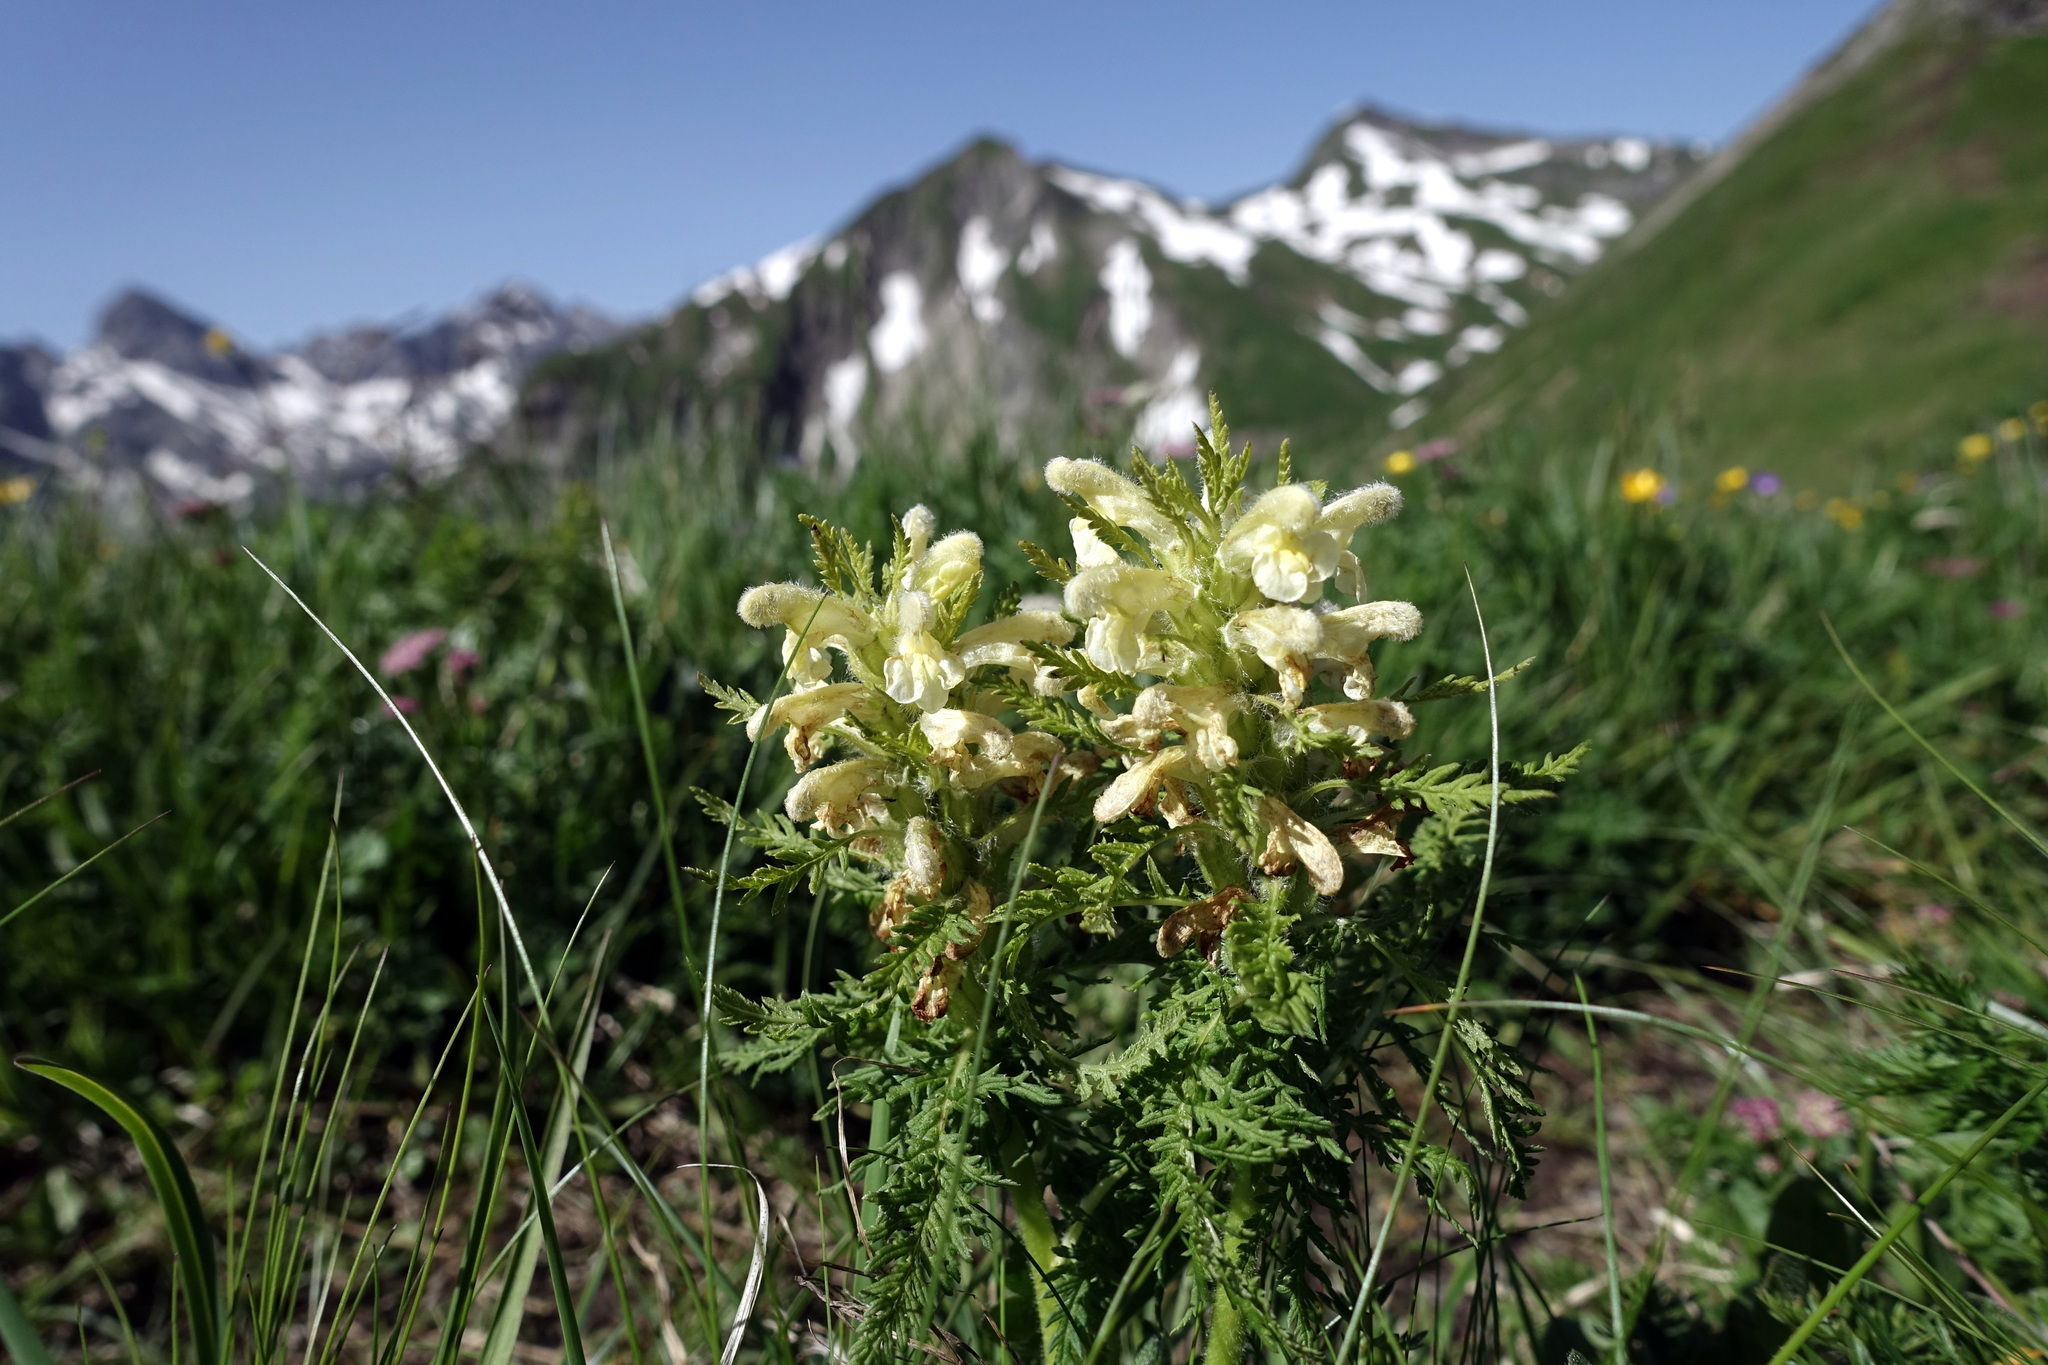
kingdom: Plantae
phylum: Tracheophyta
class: Magnoliopsida
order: Lamiales
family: Orobanchaceae
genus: Pedicularis
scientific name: Pedicularis foliosa
